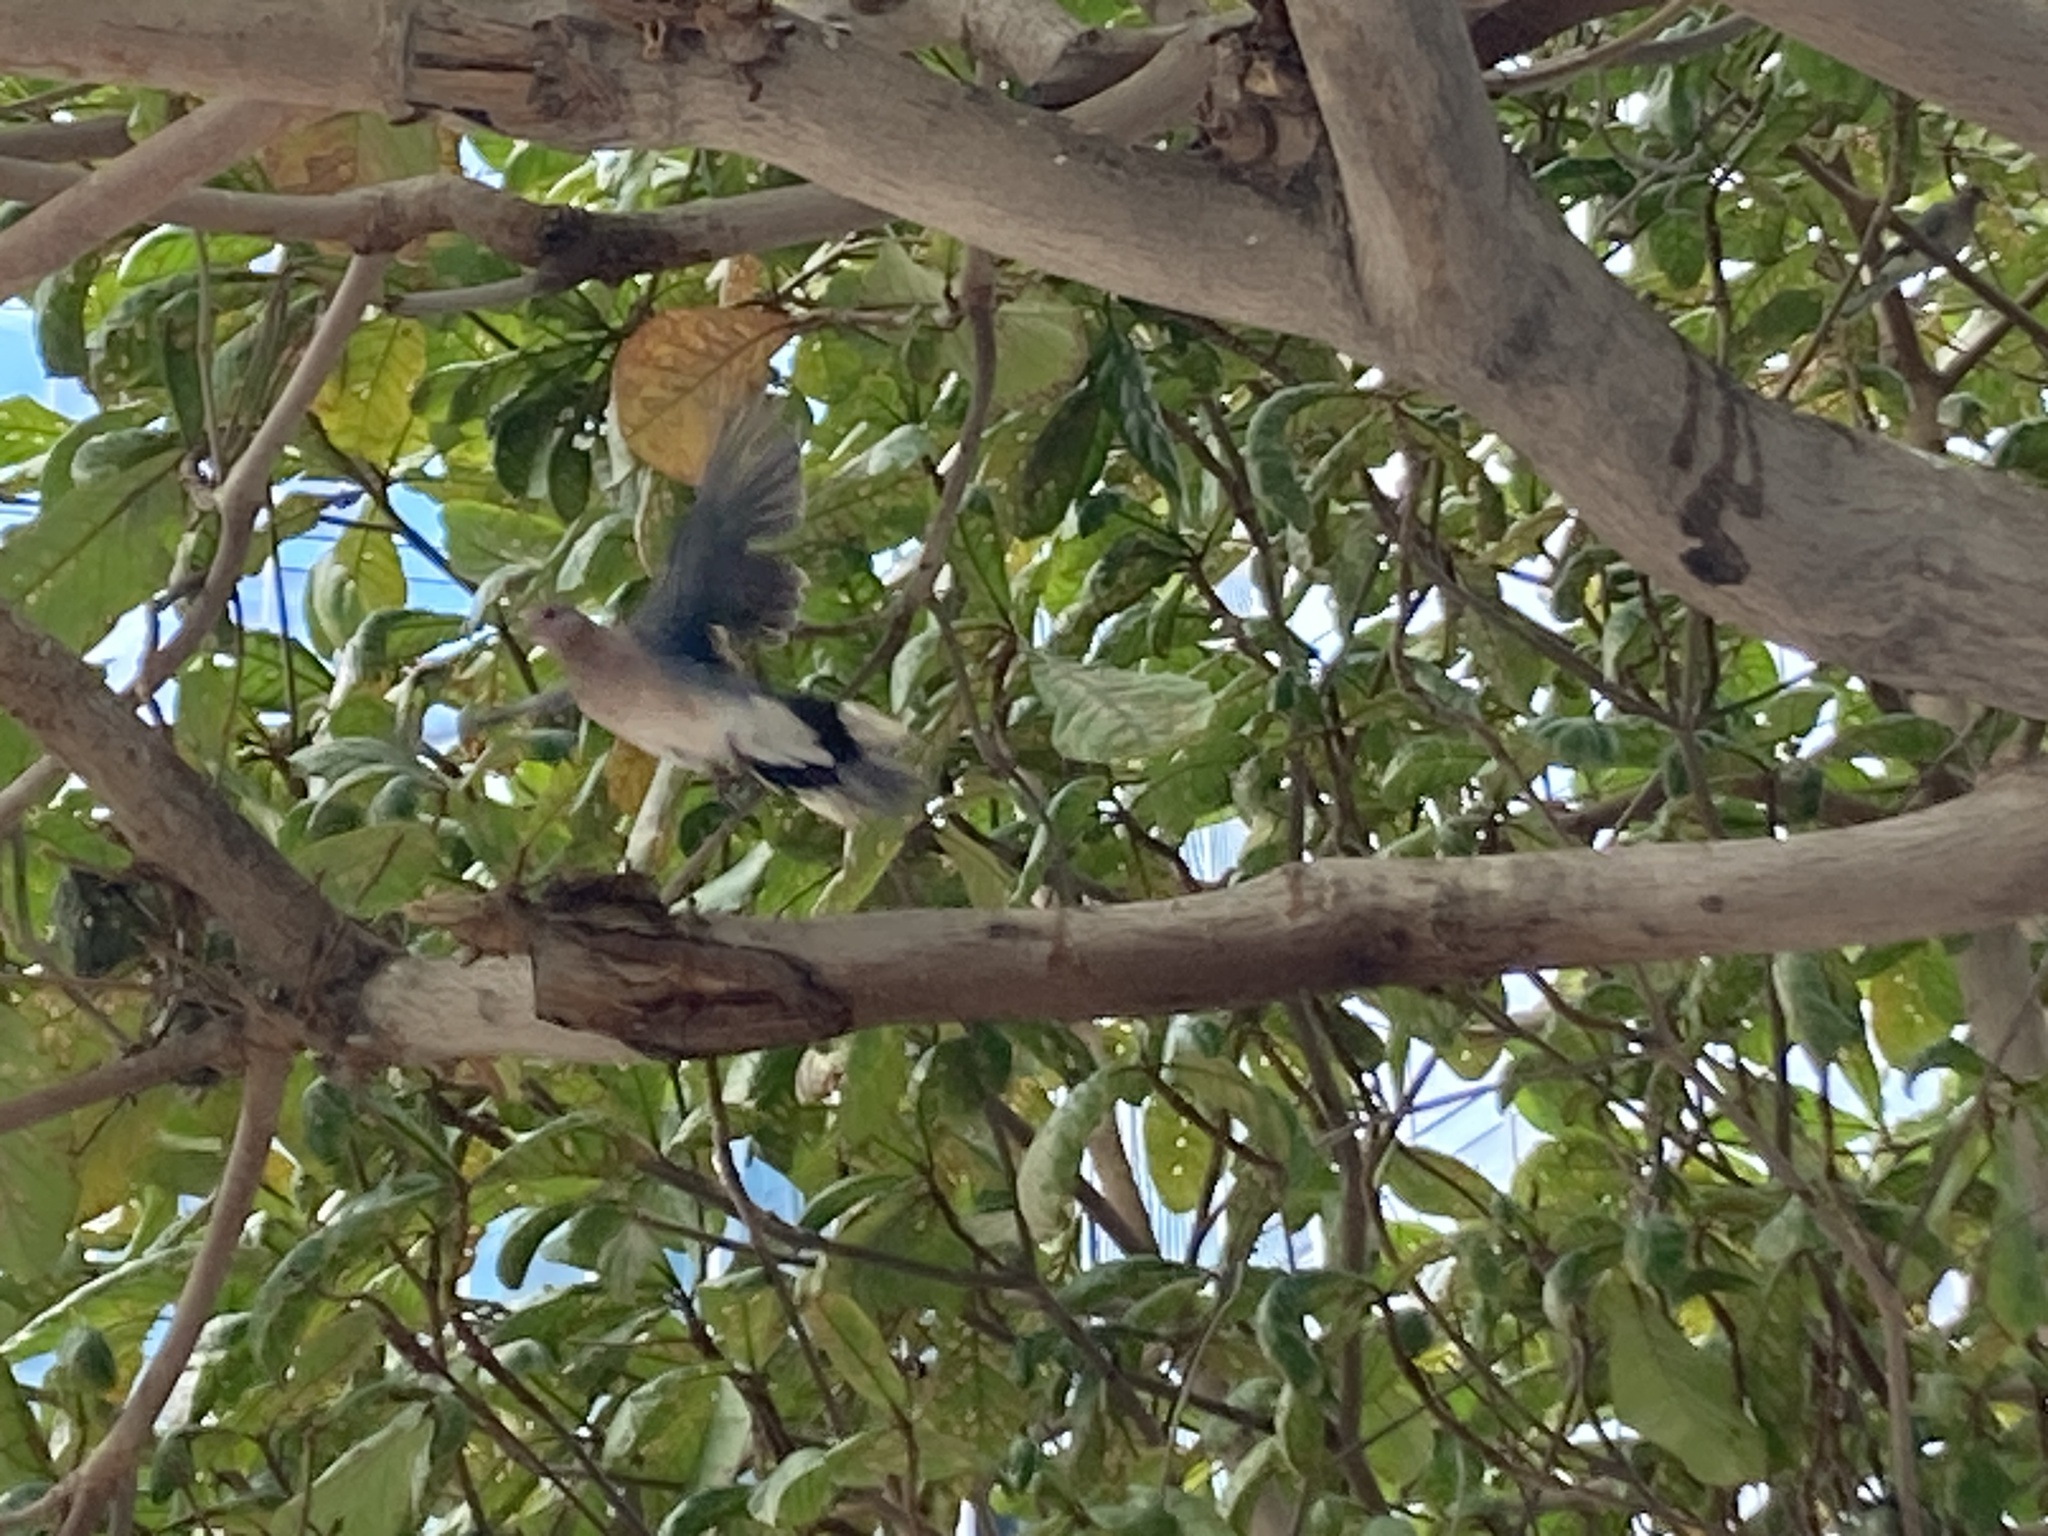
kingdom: Animalia
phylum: Chordata
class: Aves
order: Columbiformes
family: Columbidae
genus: Spilopelia
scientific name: Spilopelia senegalensis
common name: Laughing dove
